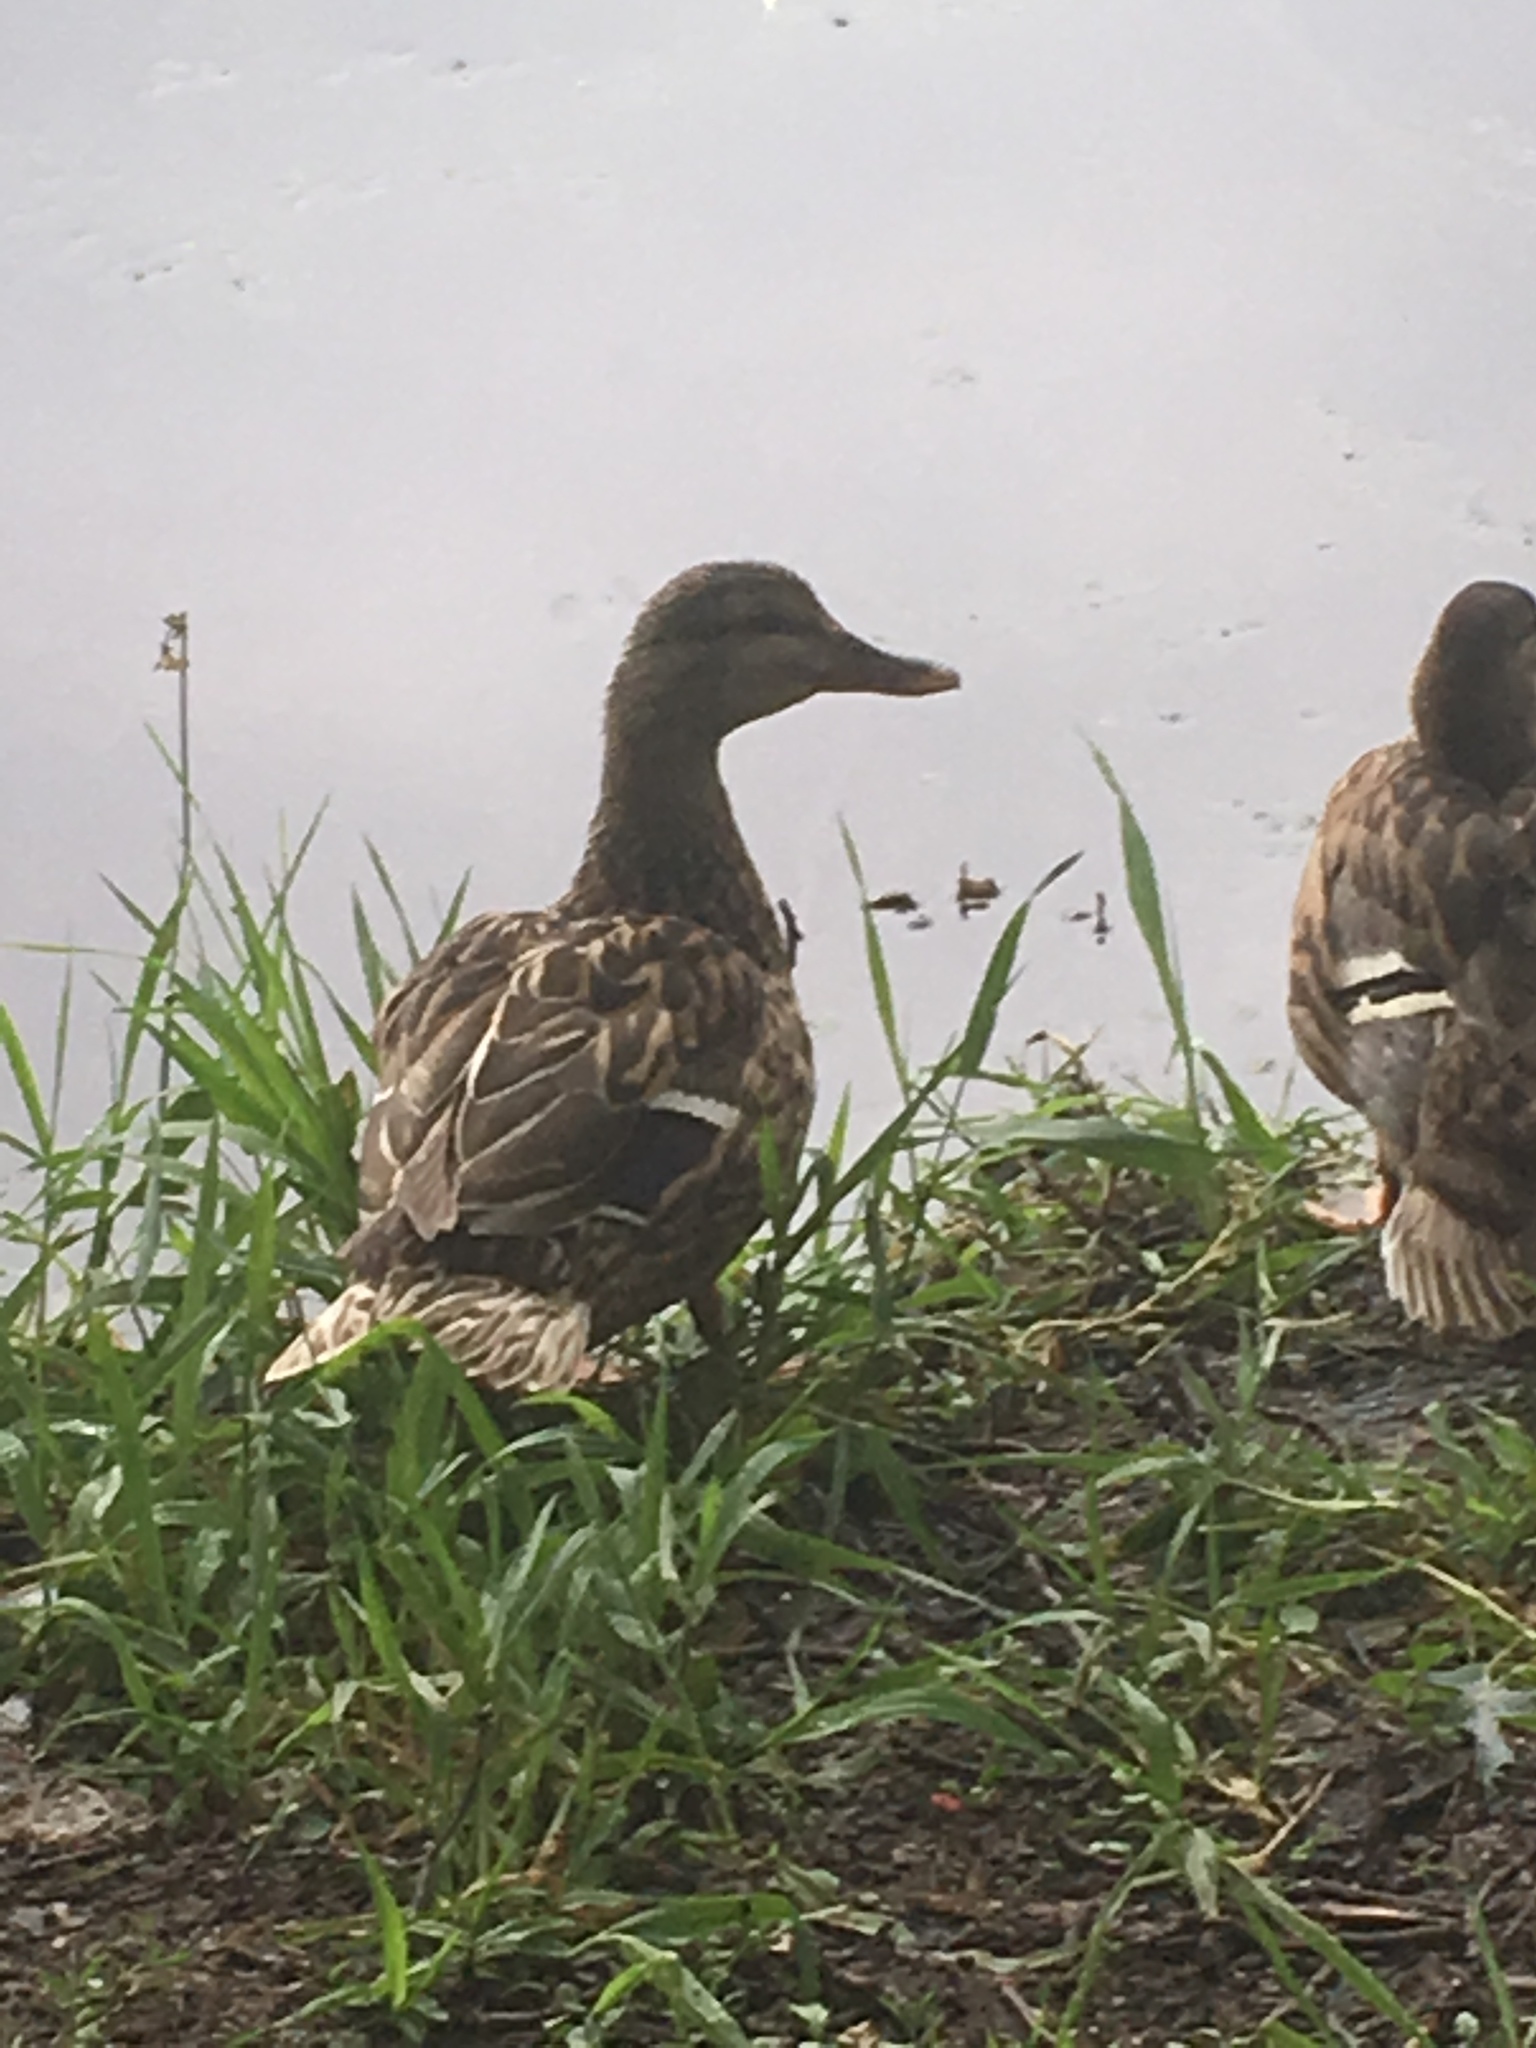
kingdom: Animalia
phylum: Chordata
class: Aves
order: Anseriformes
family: Anatidae
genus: Anas
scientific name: Anas platyrhynchos
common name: Mallard
